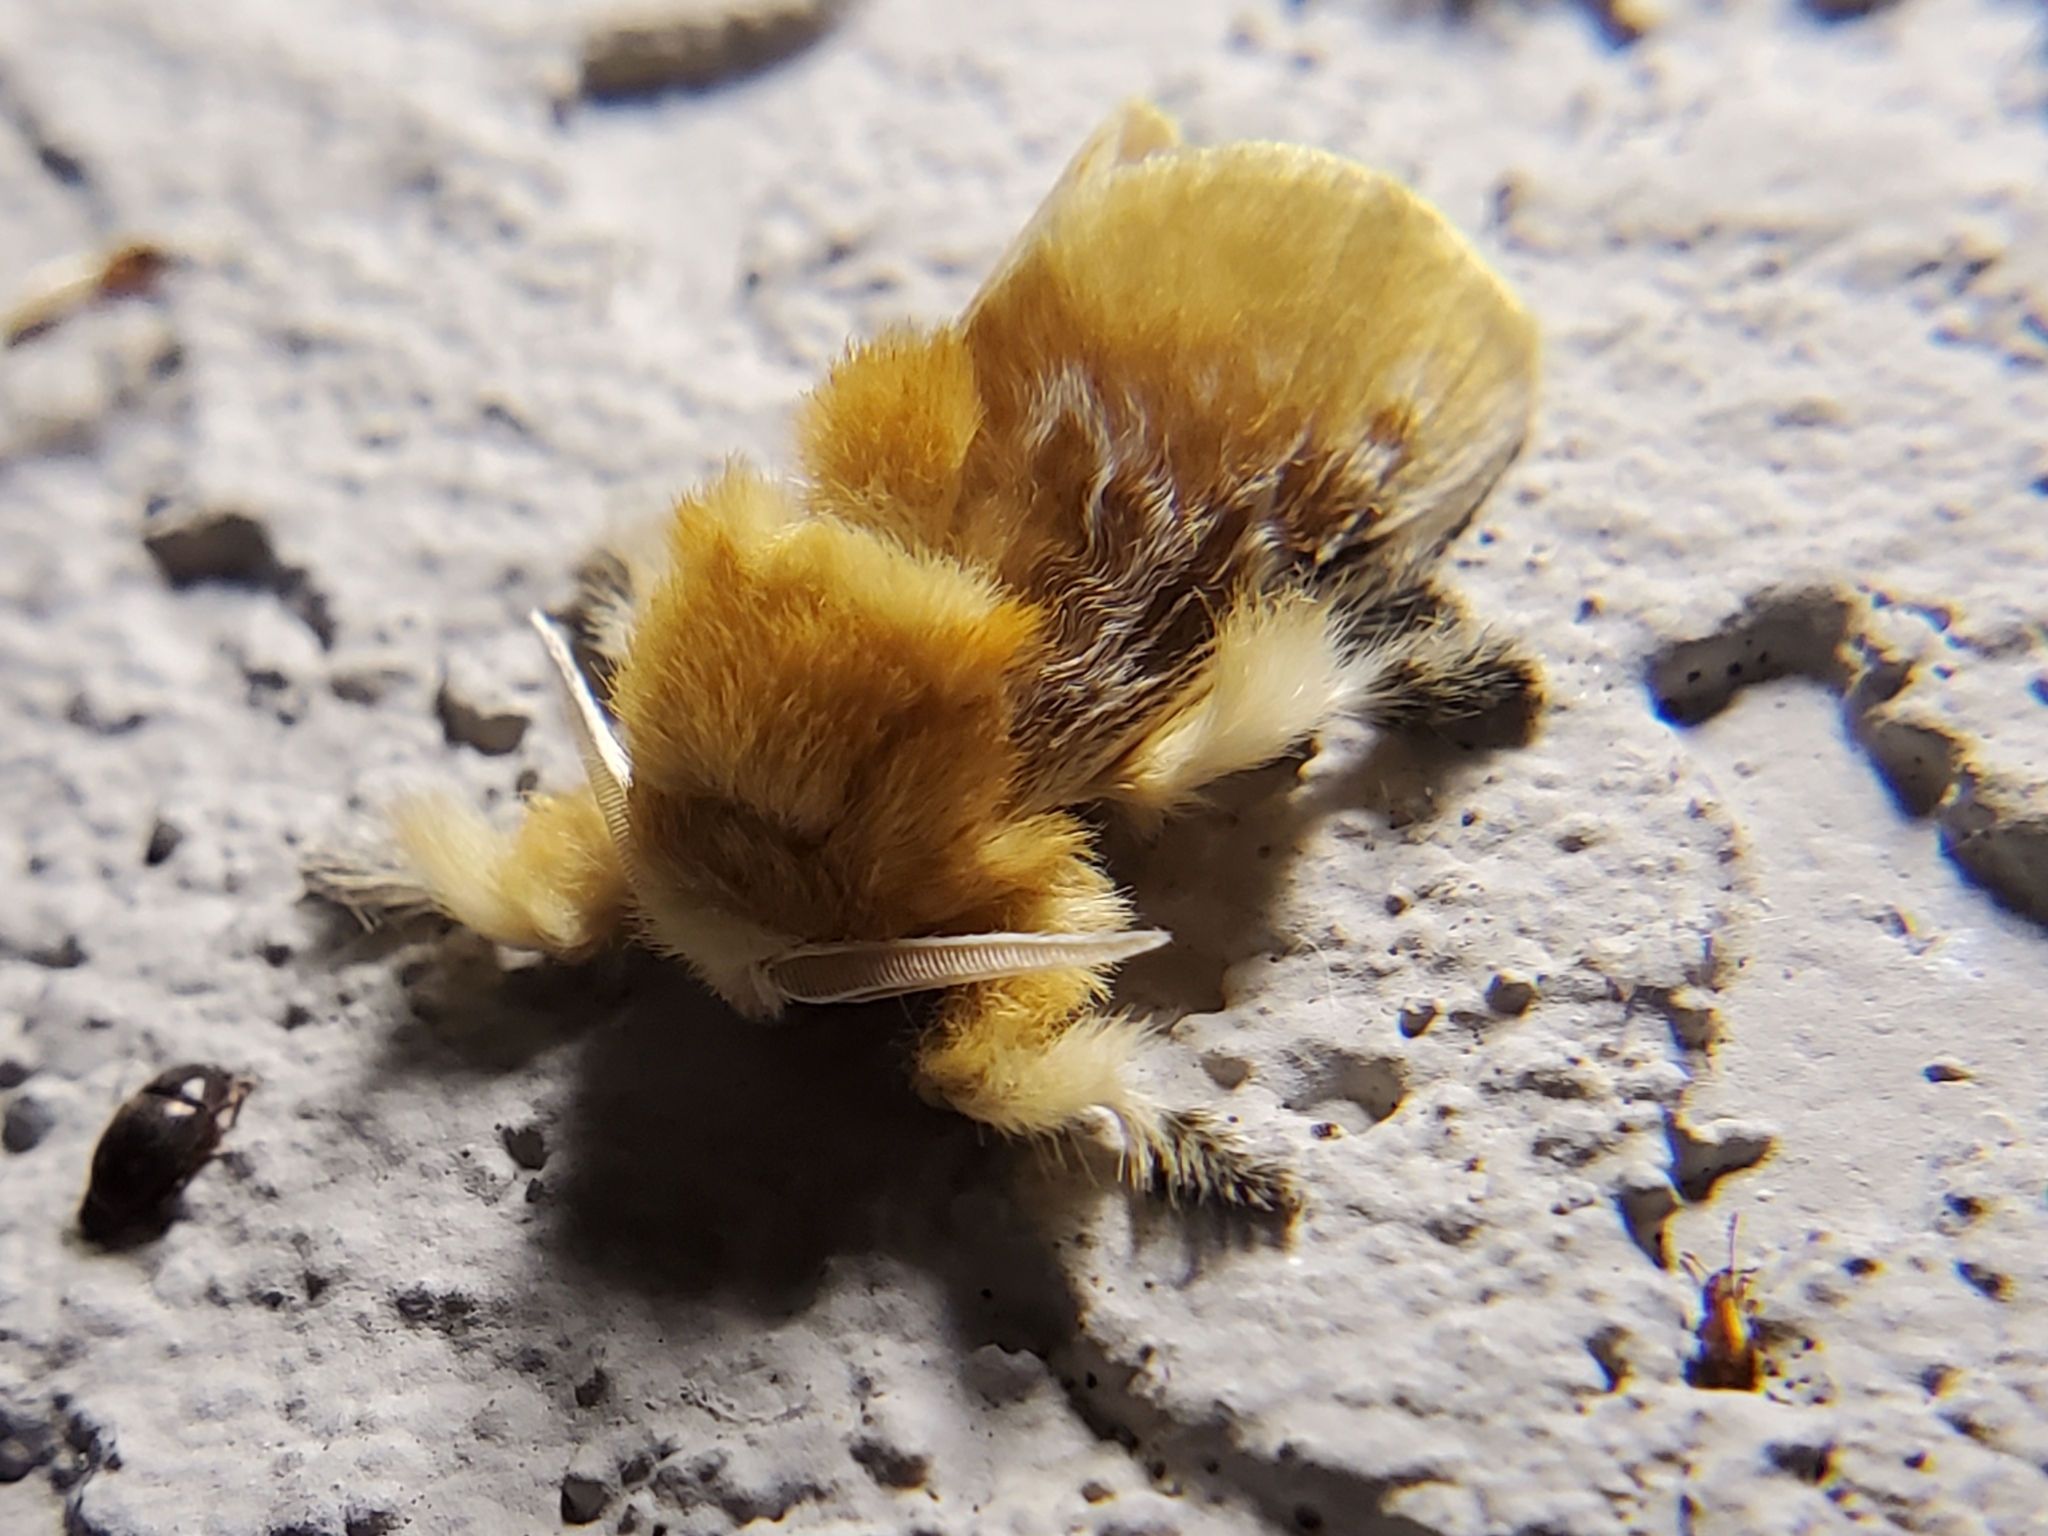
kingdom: Animalia
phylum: Arthropoda
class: Insecta
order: Lepidoptera
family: Megalopygidae
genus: Megalopyge
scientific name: Megalopyge opercularis
